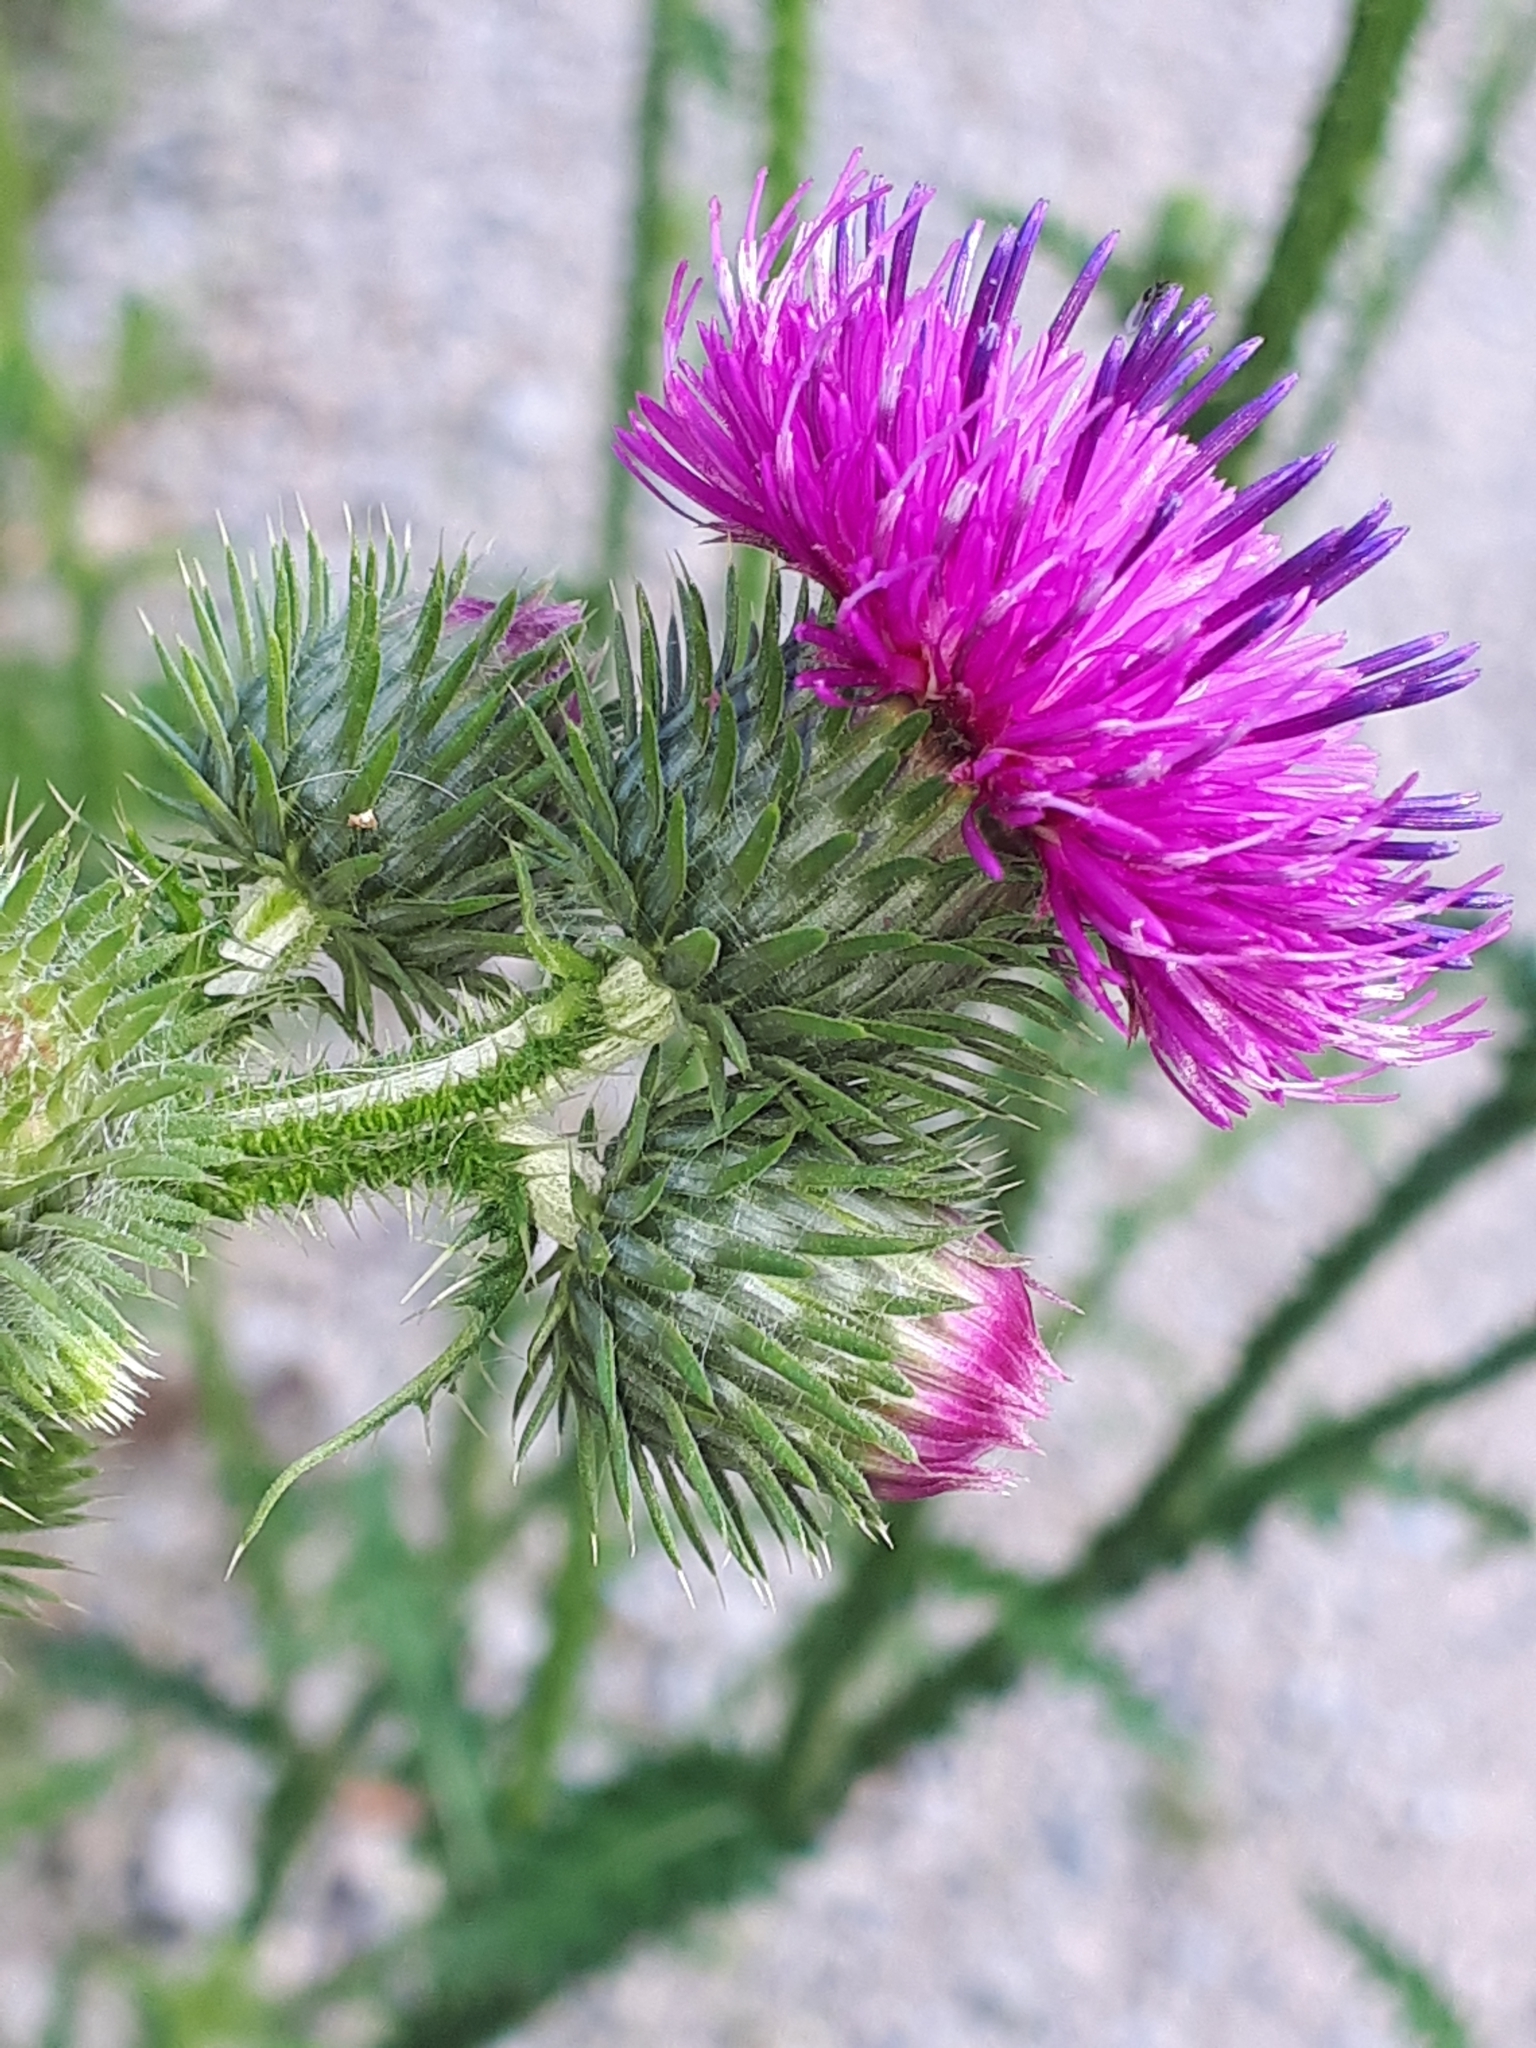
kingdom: Plantae
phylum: Tracheophyta
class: Magnoliopsida
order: Asterales
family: Asteraceae
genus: Carduus
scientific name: Carduus acanthoides
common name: Plumeless thistle
